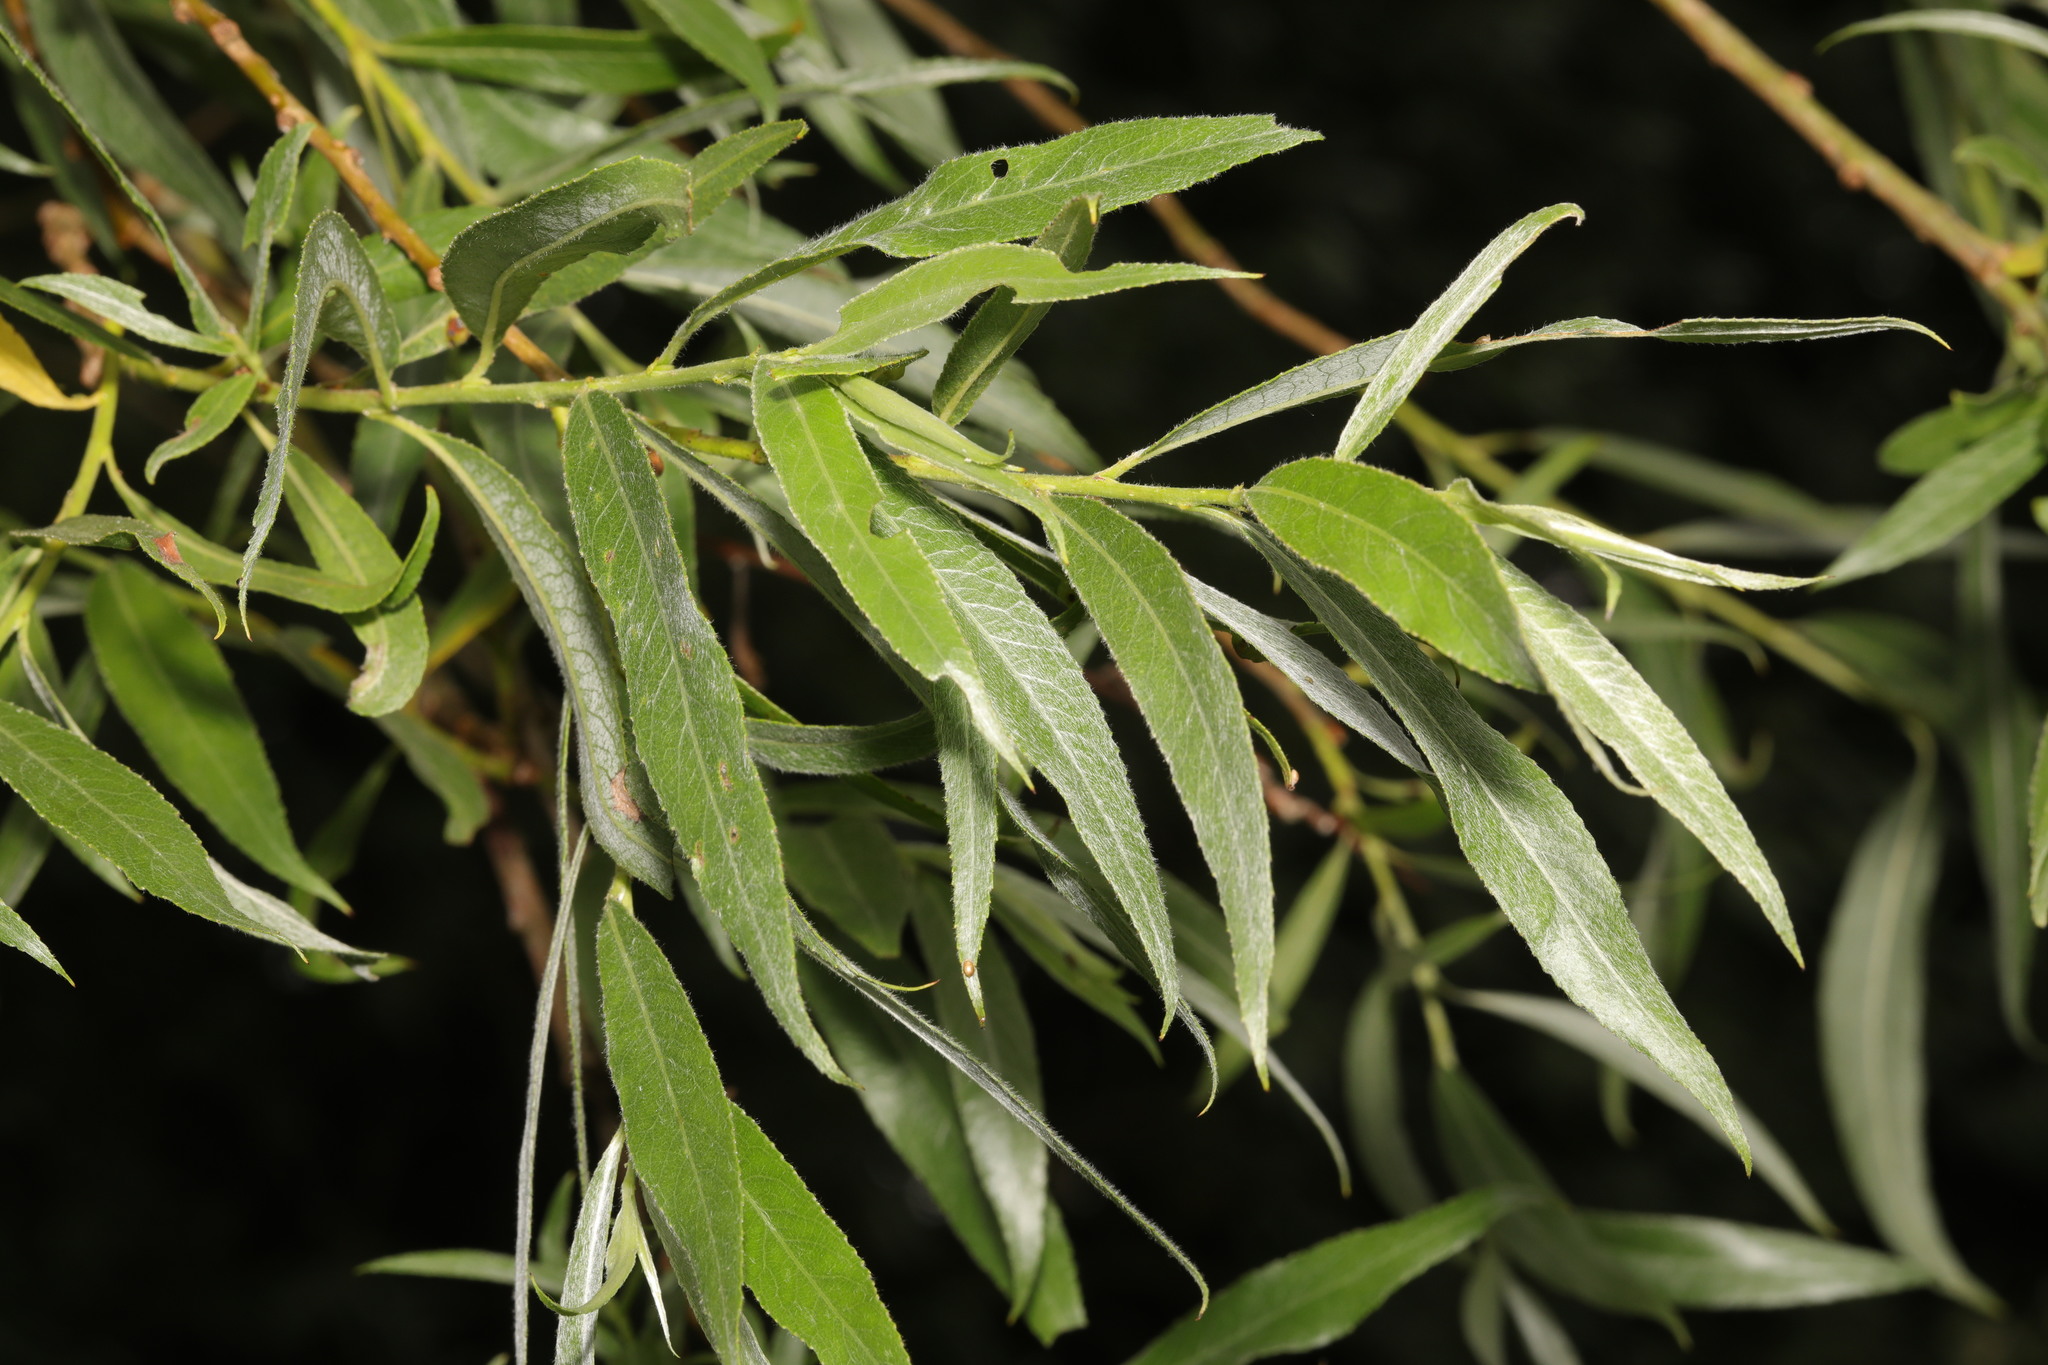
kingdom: Plantae
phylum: Tracheophyta
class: Magnoliopsida
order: Malpighiales
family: Salicaceae
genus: Salix
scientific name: Salix alba
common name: White willow
